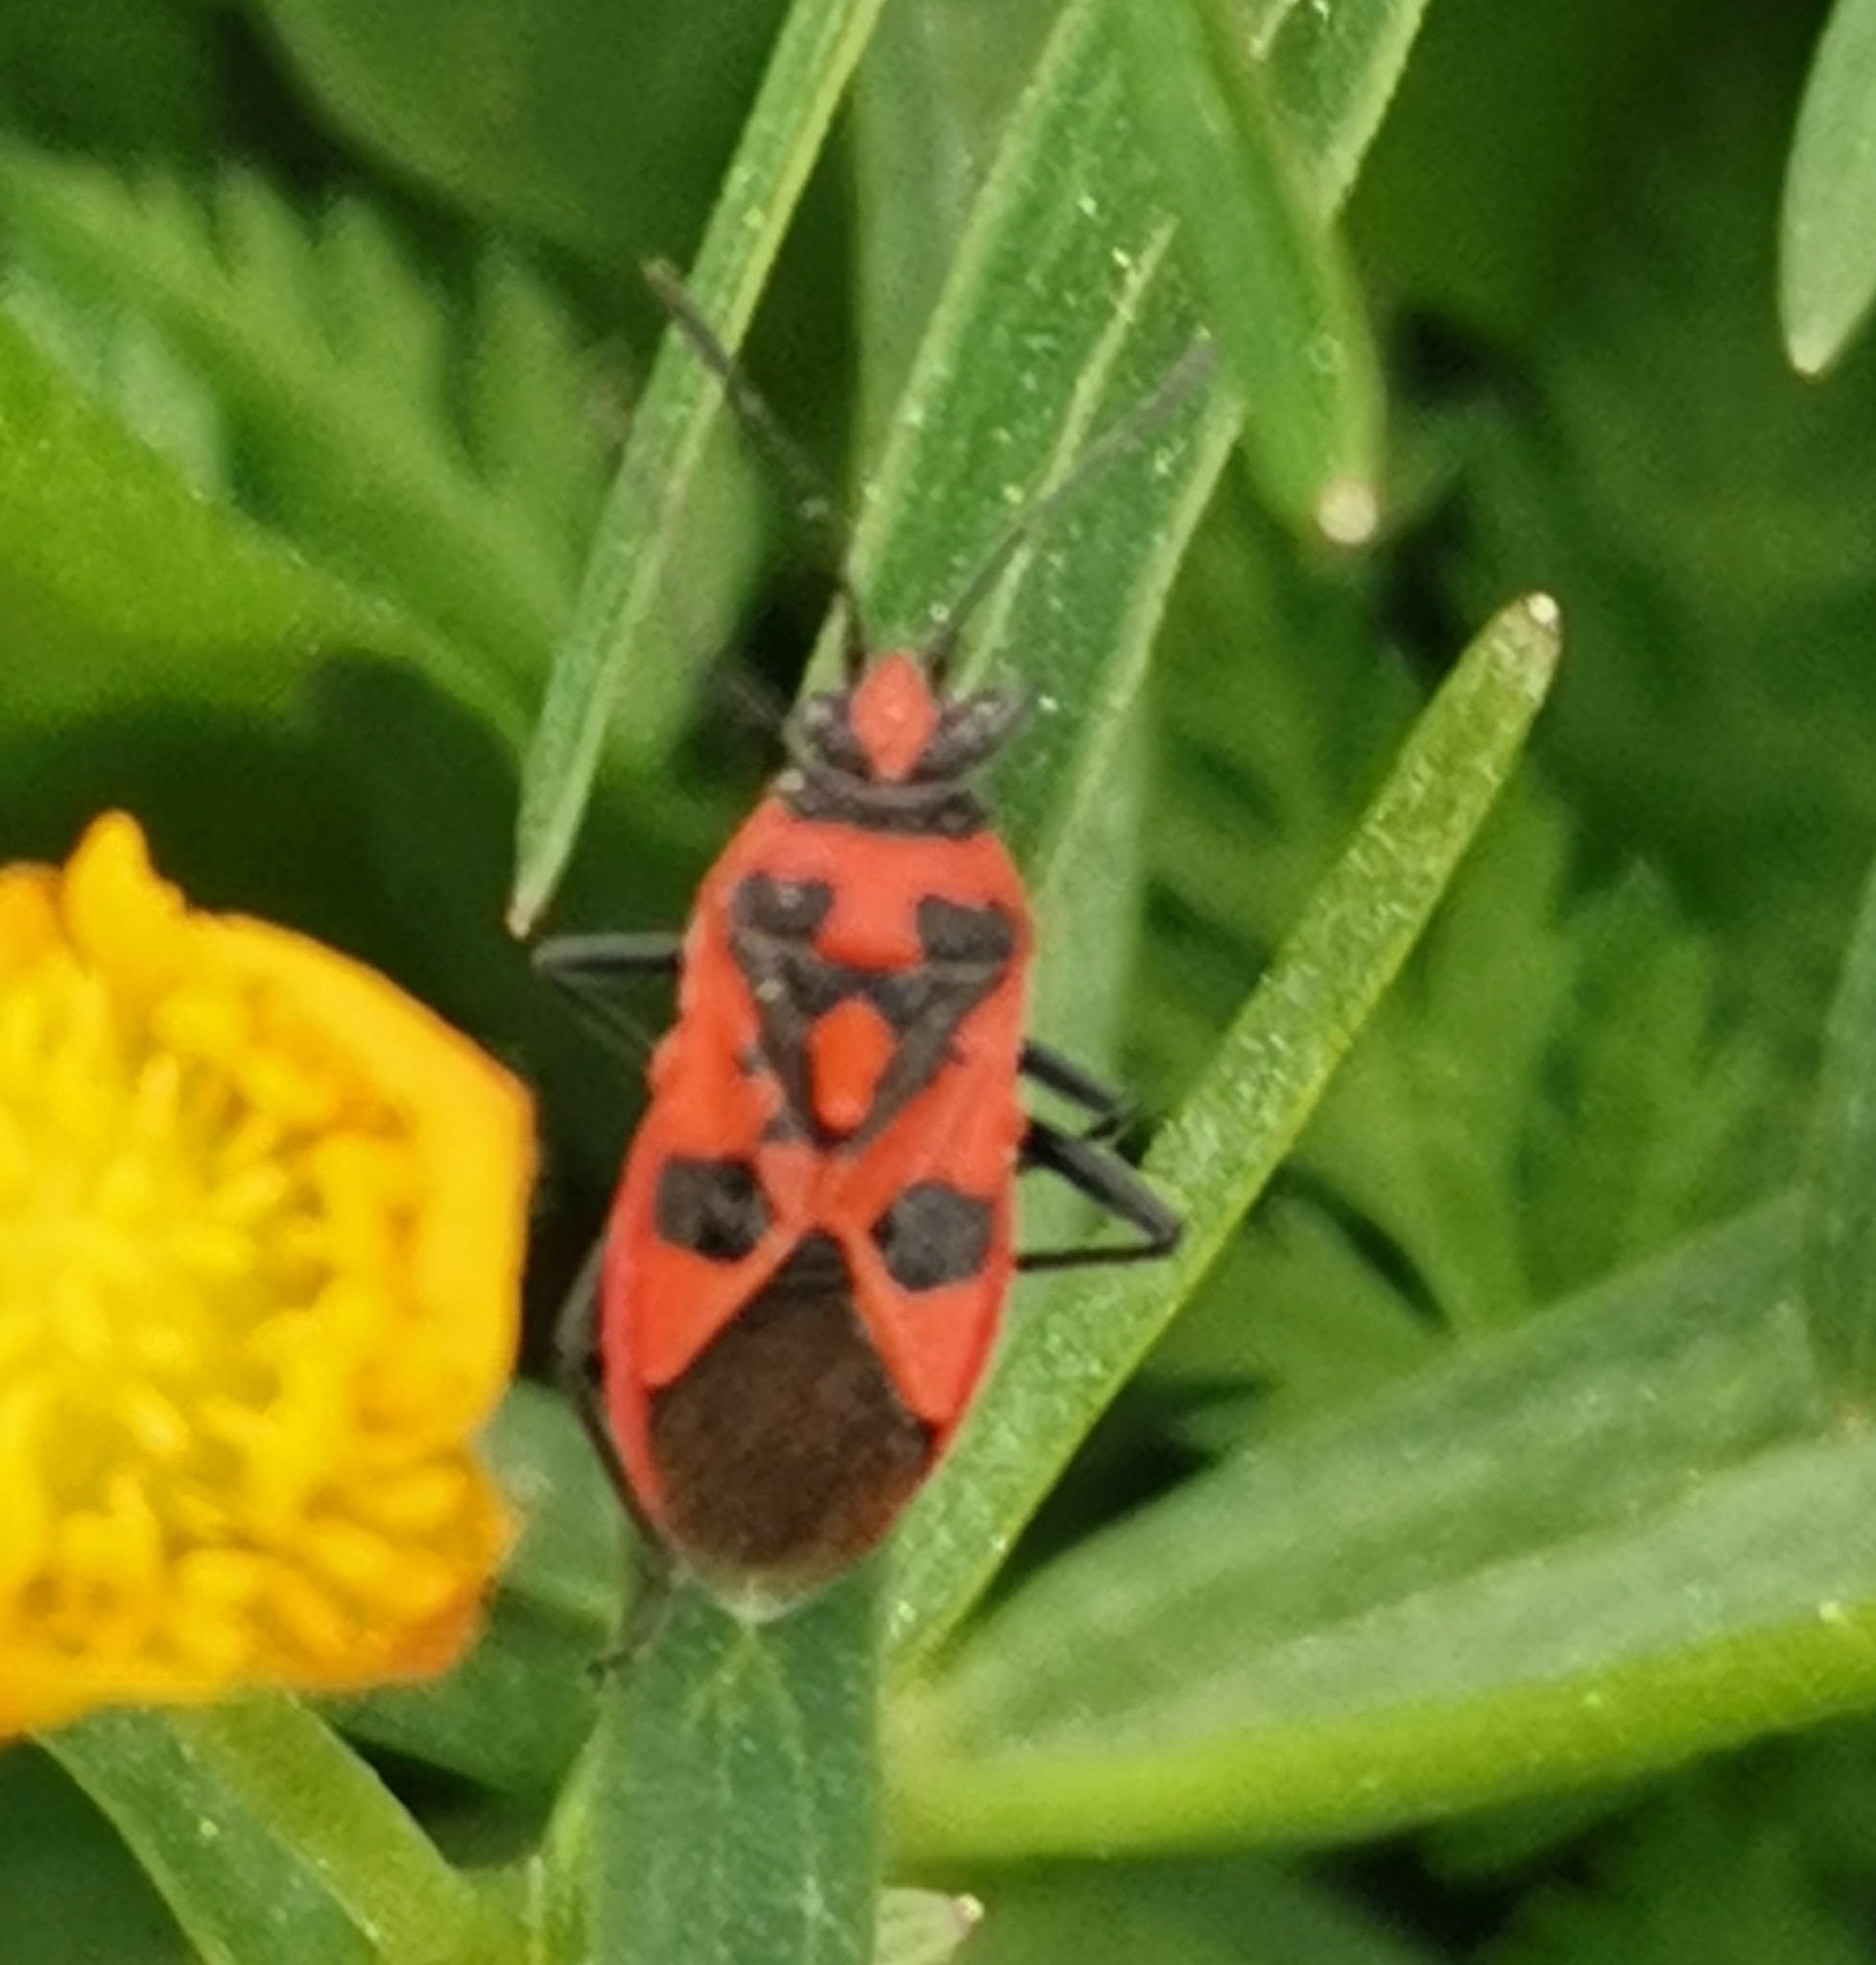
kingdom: Animalia
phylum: Arthropoda
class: Insecta
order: Hemiptera
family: Rhopalidae
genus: Corizus
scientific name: Corizus hyoscyami
